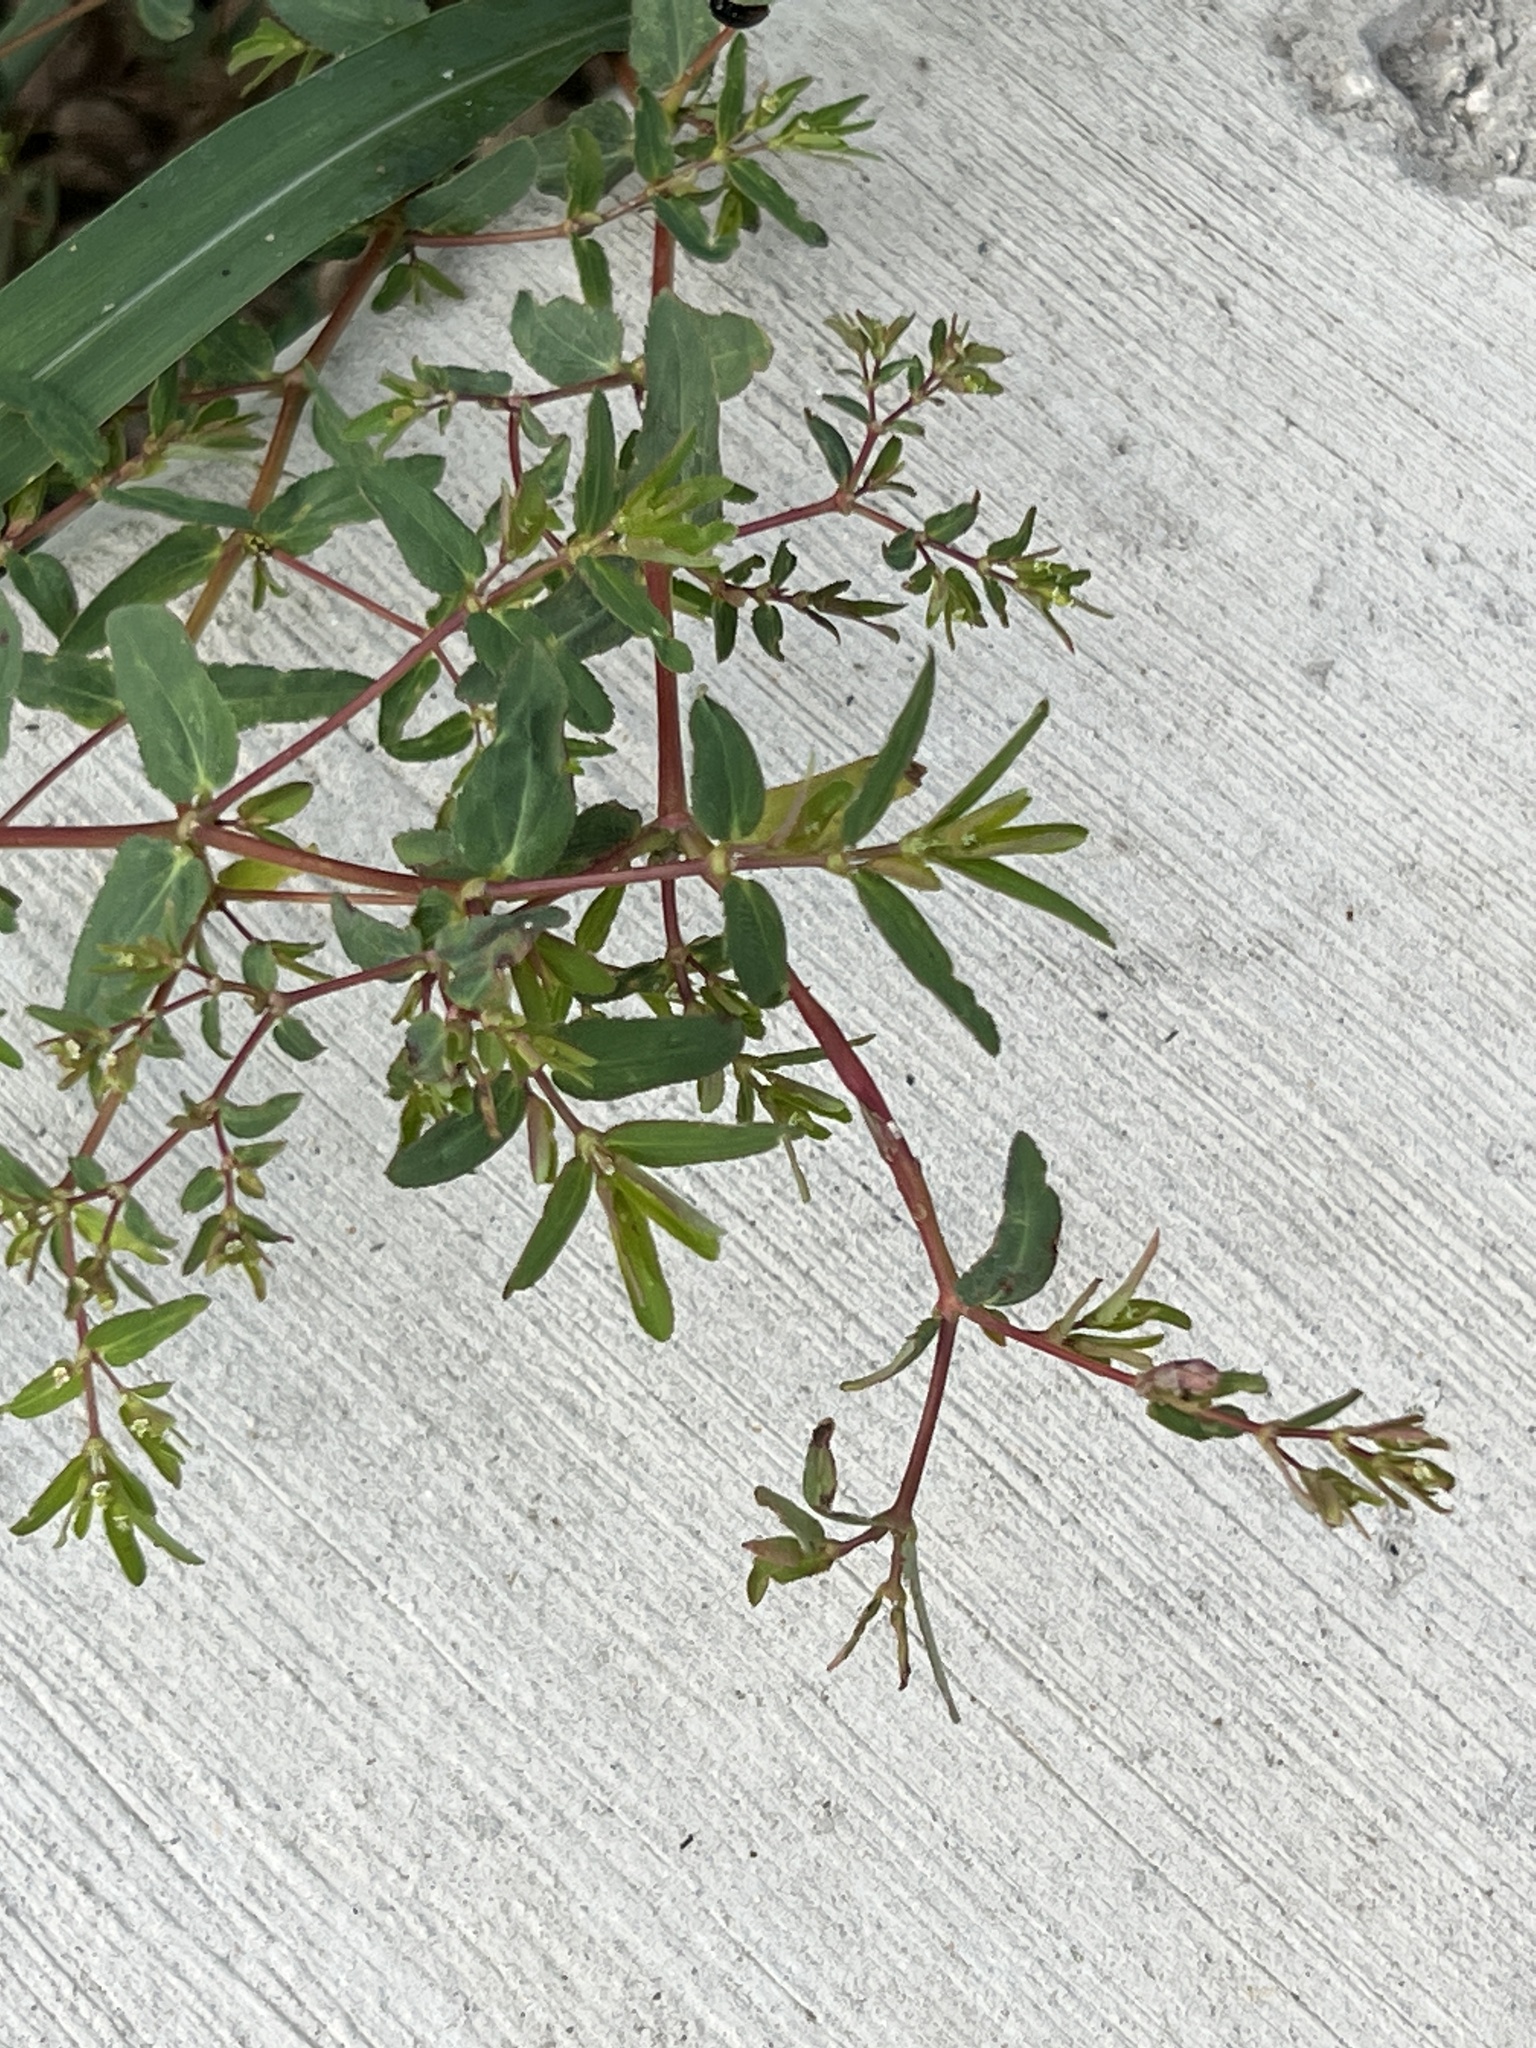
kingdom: Plantae
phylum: Tracheophyta
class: Magnoliopsida
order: Malpighiales
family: Euphorbiaceae
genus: Euphorbia
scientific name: Euphorbia nutans
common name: Eyebane
